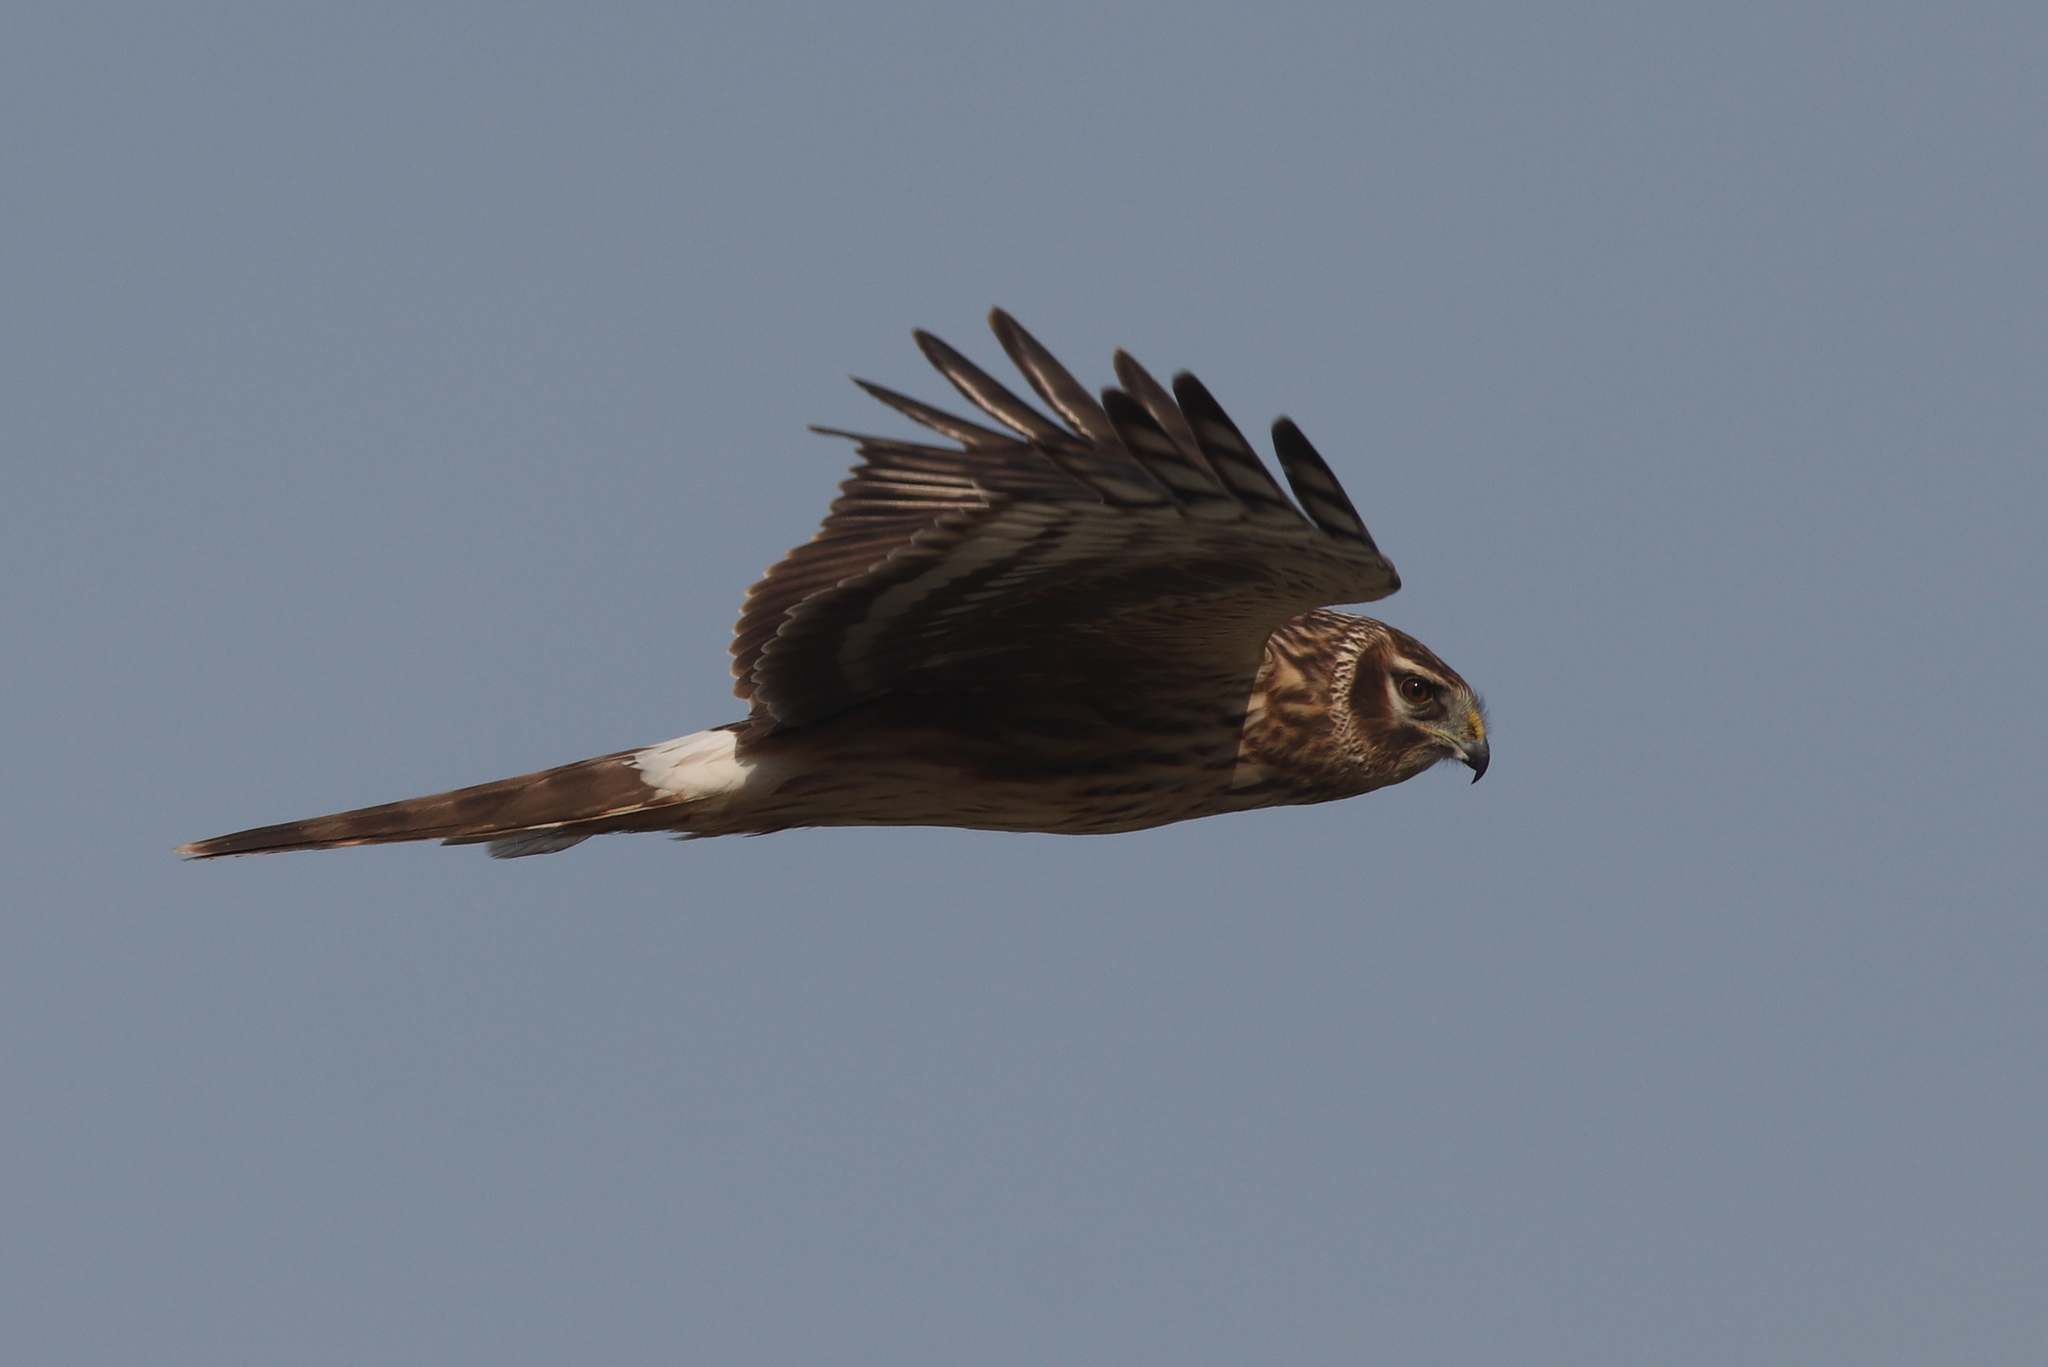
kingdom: Animalia
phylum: Chordata
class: Aves
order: Accipitriformes
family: Accipitridae
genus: Circus
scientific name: Circus cyaneus
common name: Hen harrier
